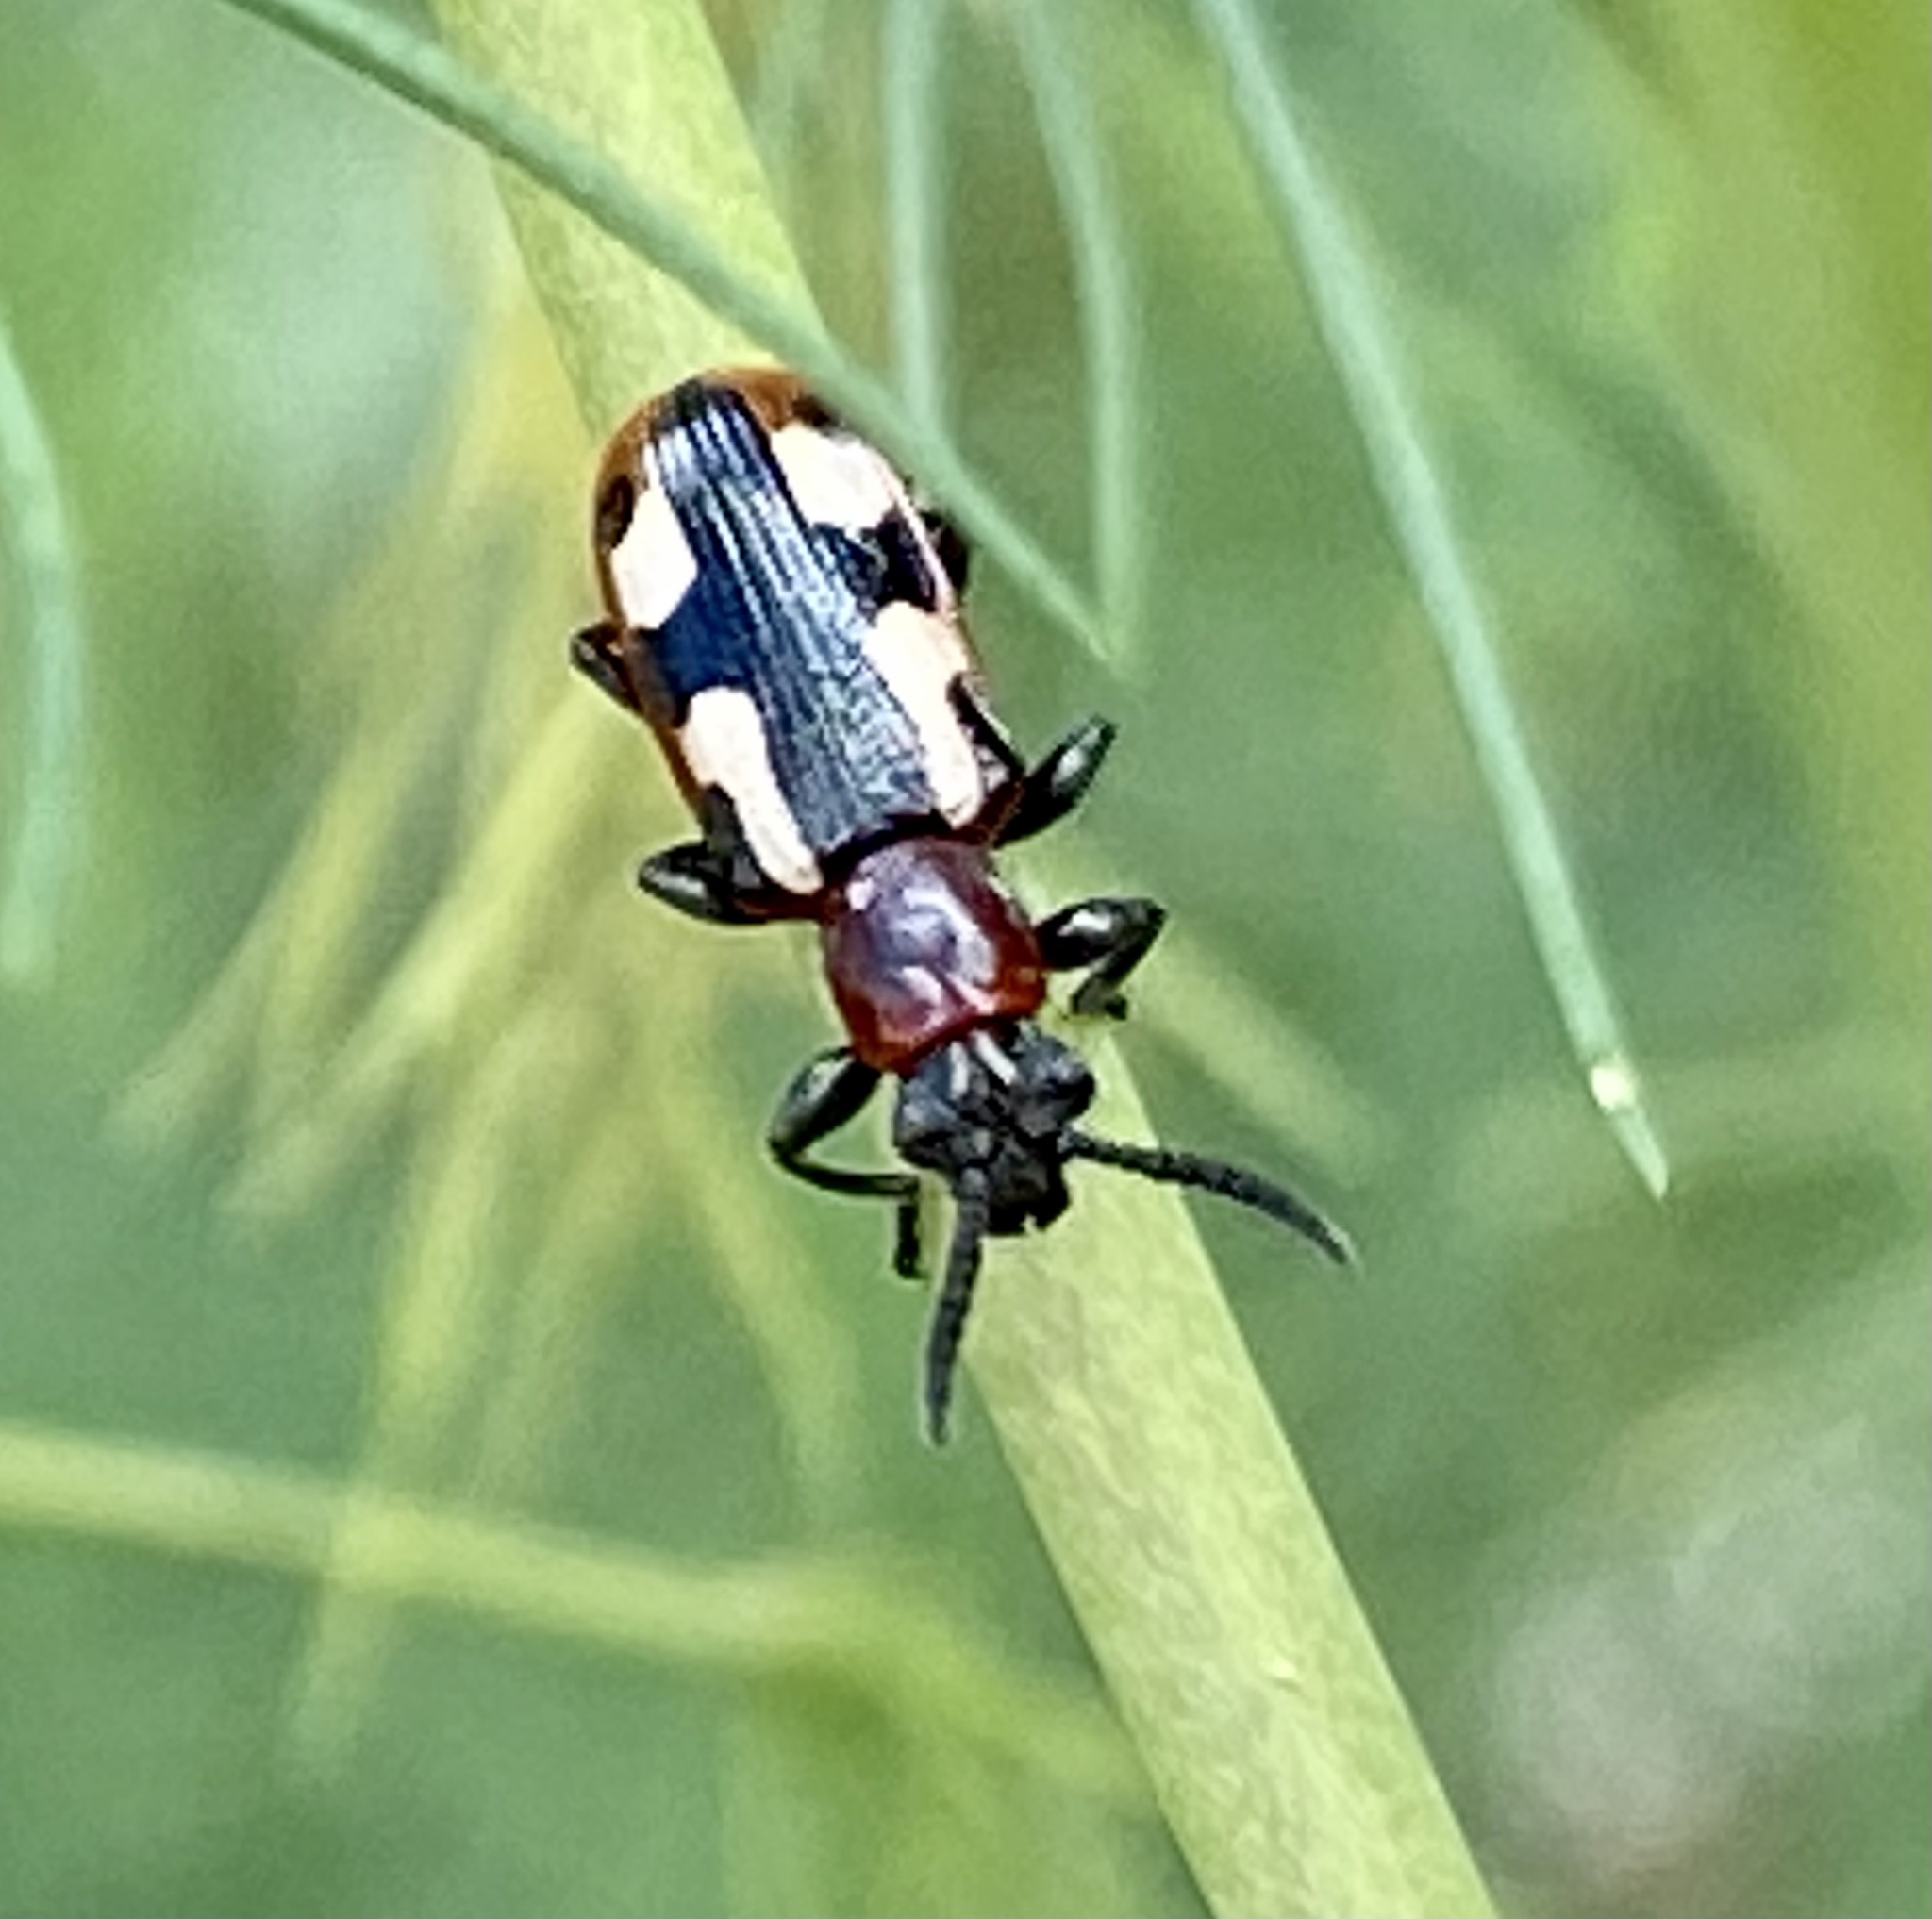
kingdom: Animalia
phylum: Arthropoda
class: Insecta
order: Coleoptera
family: Chrysomelidae
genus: Crioceris
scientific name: Crioceris asparagi
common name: Asparagus beetle
